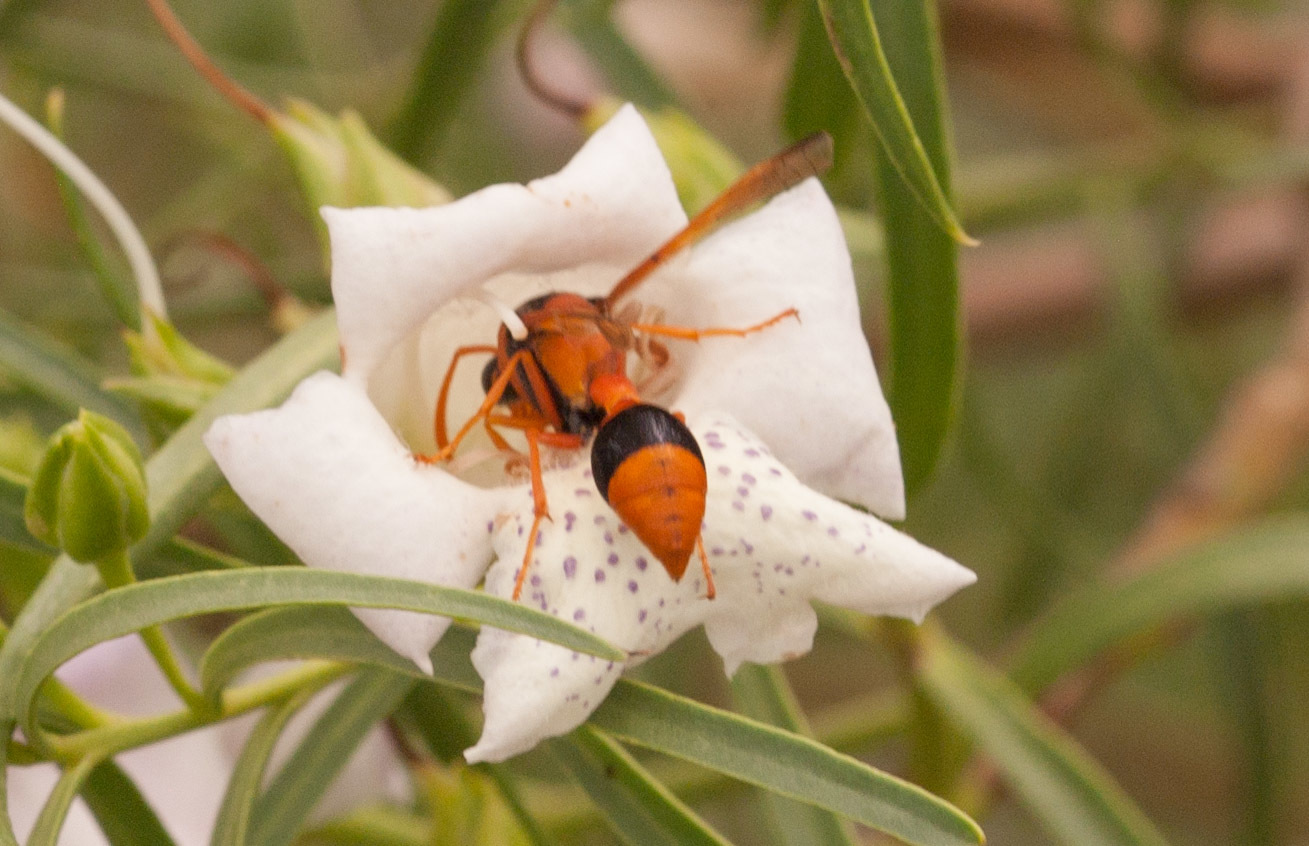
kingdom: Animalia
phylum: Arthropoda
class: Insecta
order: Hymenoptera
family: Eumenidae
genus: Delta
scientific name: Delta bicinctum
